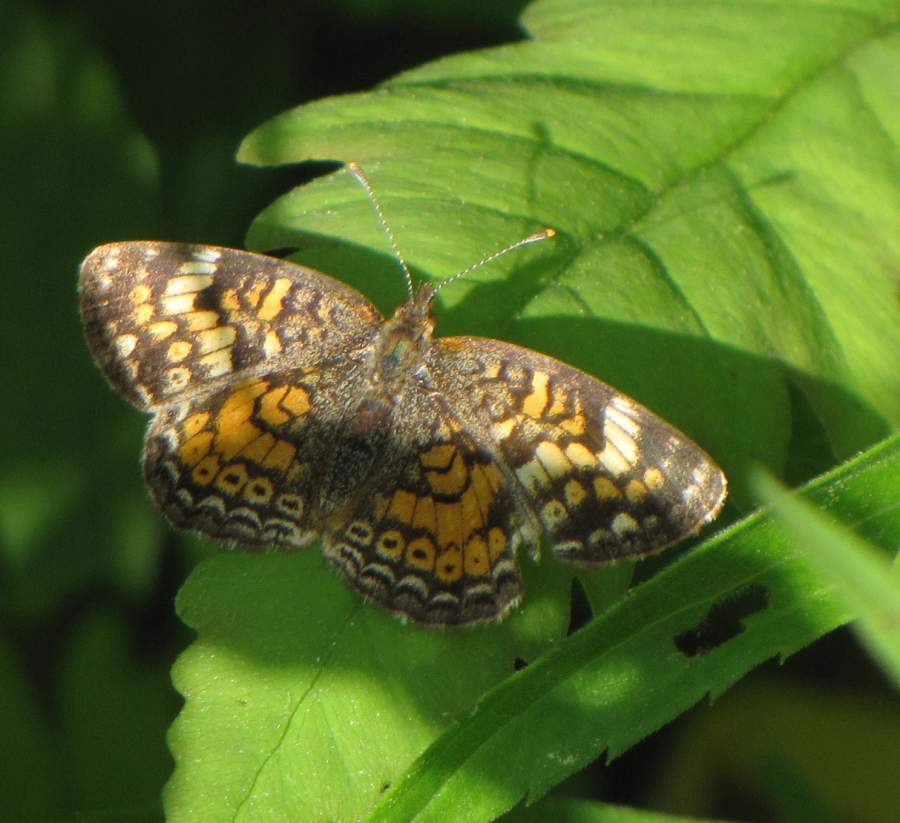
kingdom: Animalia
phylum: Arthropoda
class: Insecta
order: Lepidoptera
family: Nymphalidae
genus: Phyciodes
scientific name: Phyciodes tharos
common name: Pearl crescent
